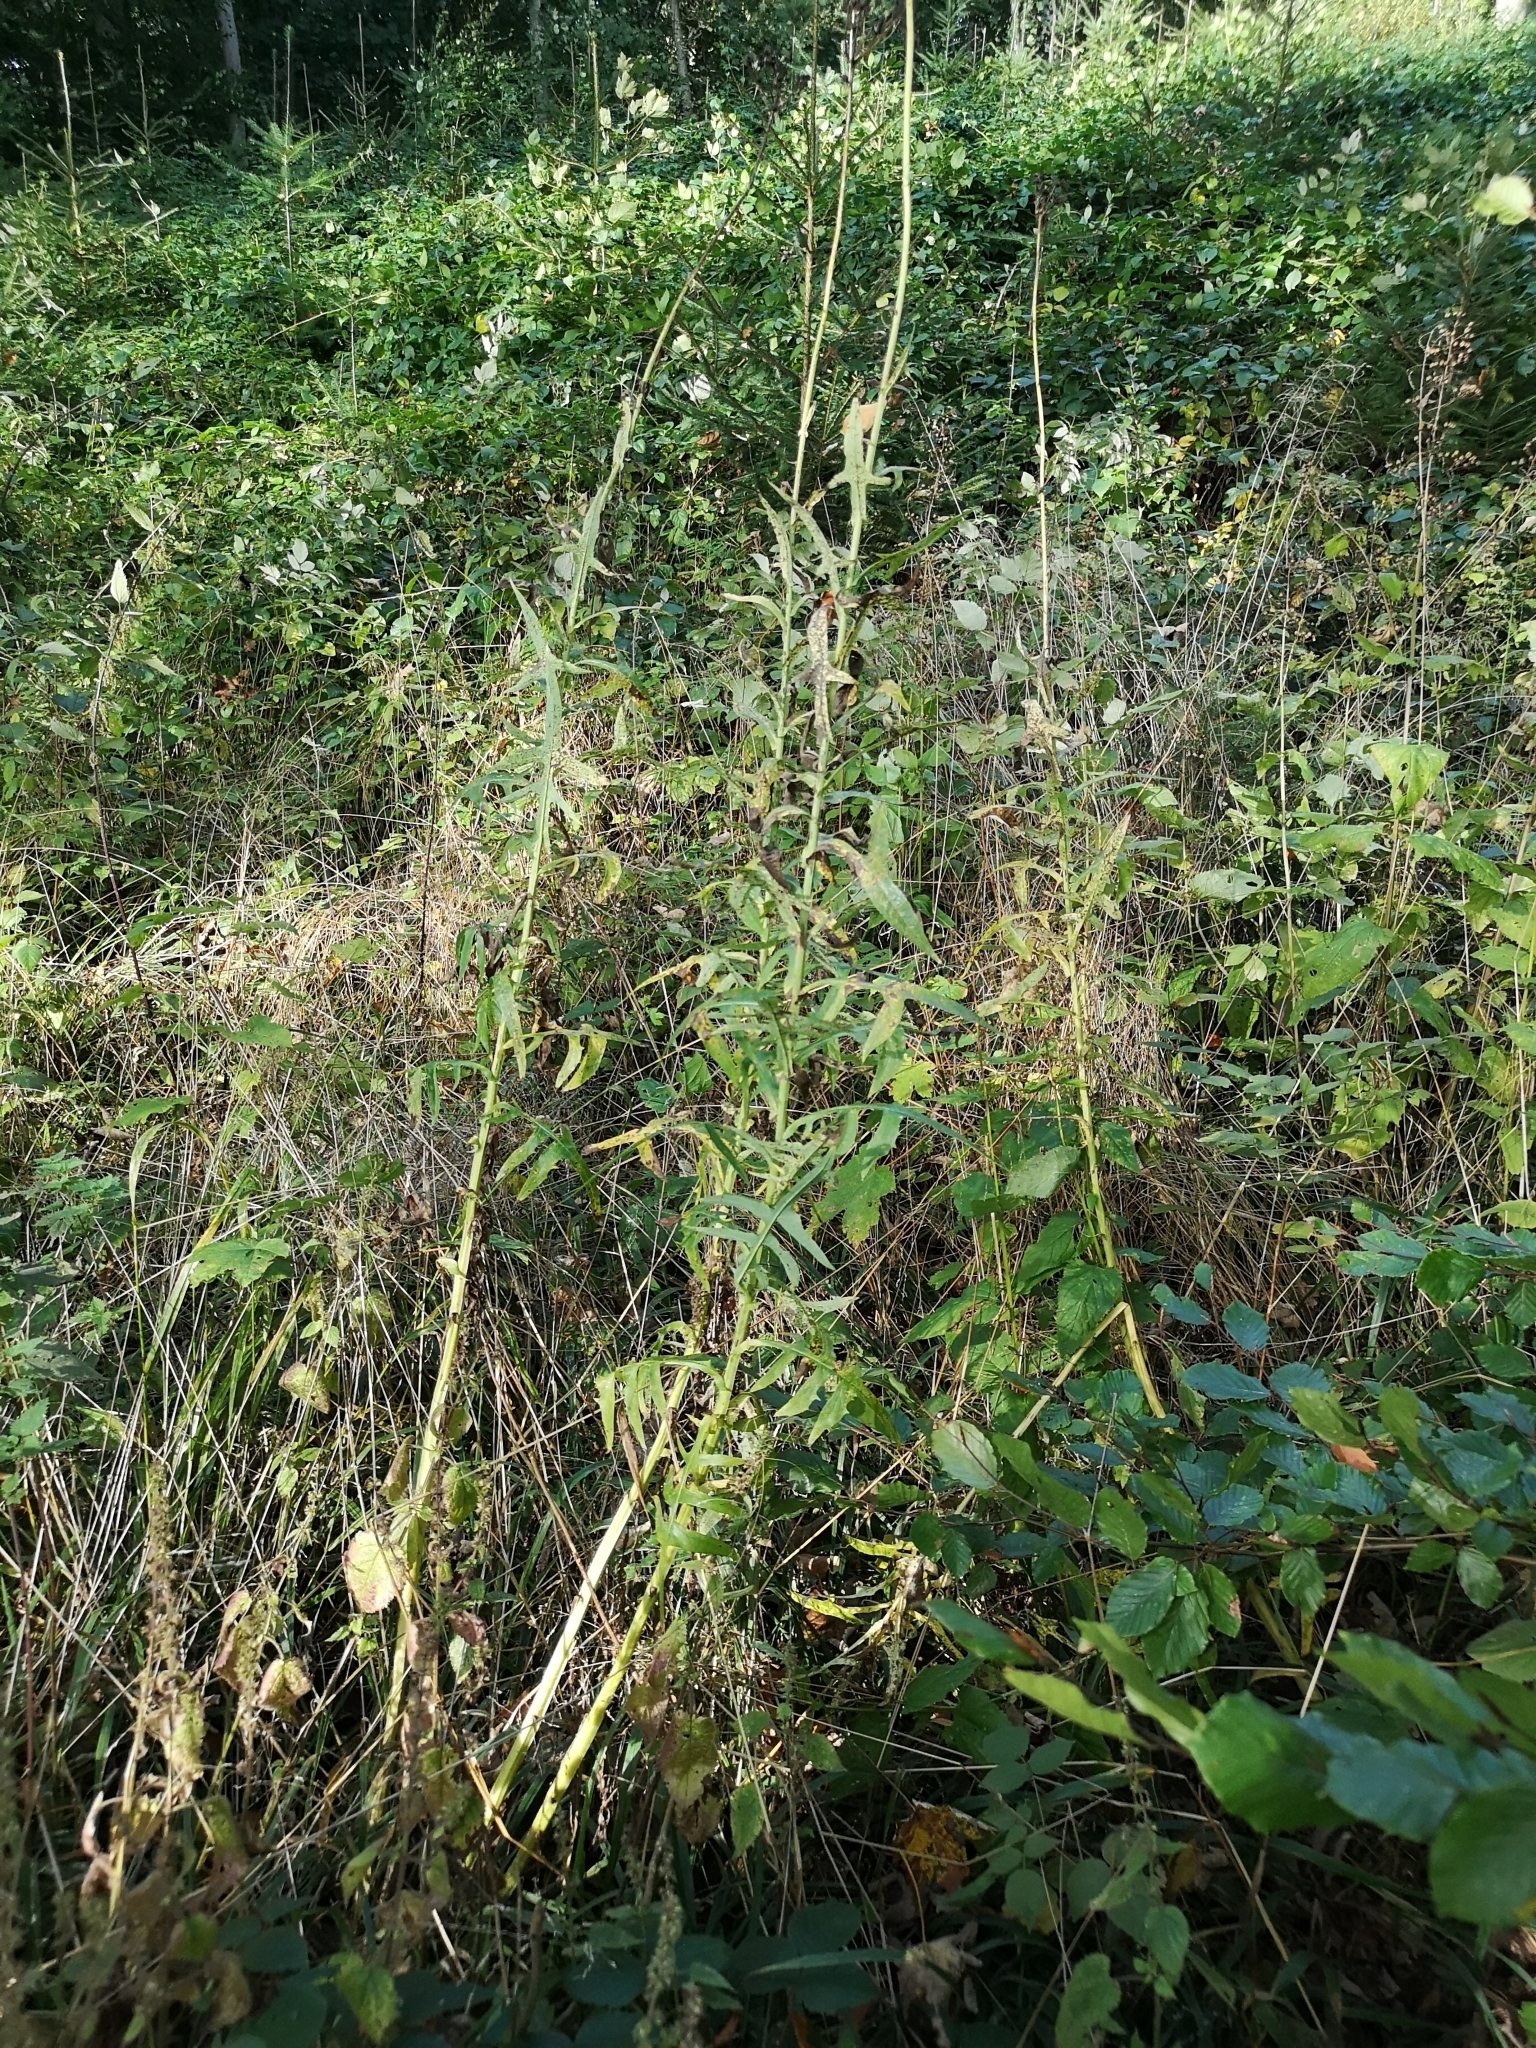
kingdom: Plantae
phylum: Tracheophyta
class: Magnoliopsida
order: Asterales
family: Asteraceae
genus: Sonchus
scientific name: Sonchus palustris
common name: Marsh sow-thistle
